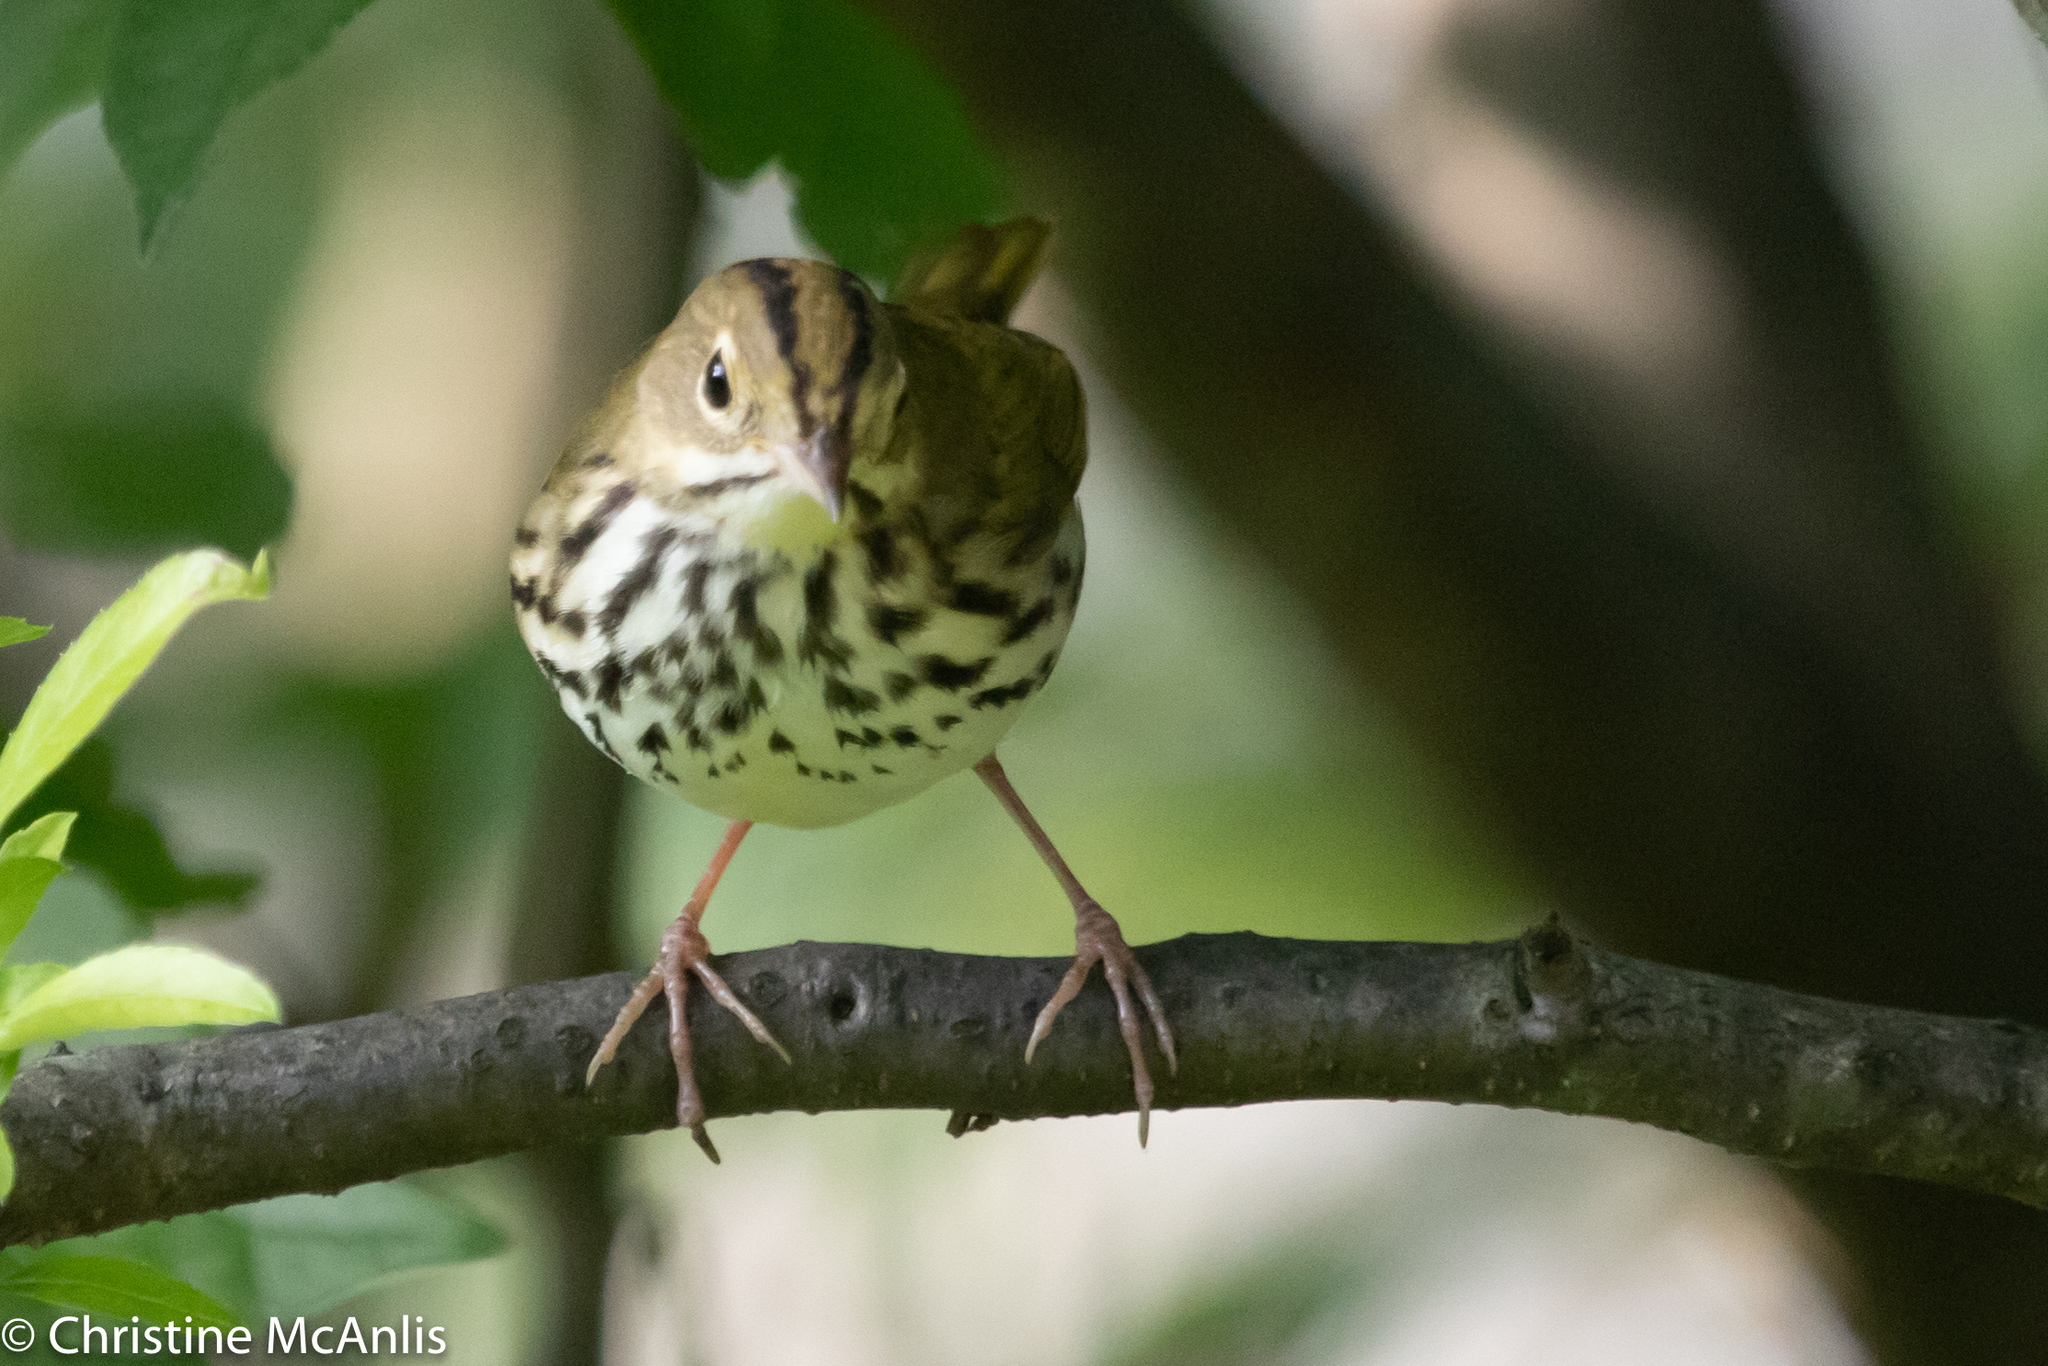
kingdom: Animalia
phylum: Chordata
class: Aves
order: Passeriformes
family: Parulidae
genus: Seiurus
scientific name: Seiurus aurocapilla
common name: Ovenbird
